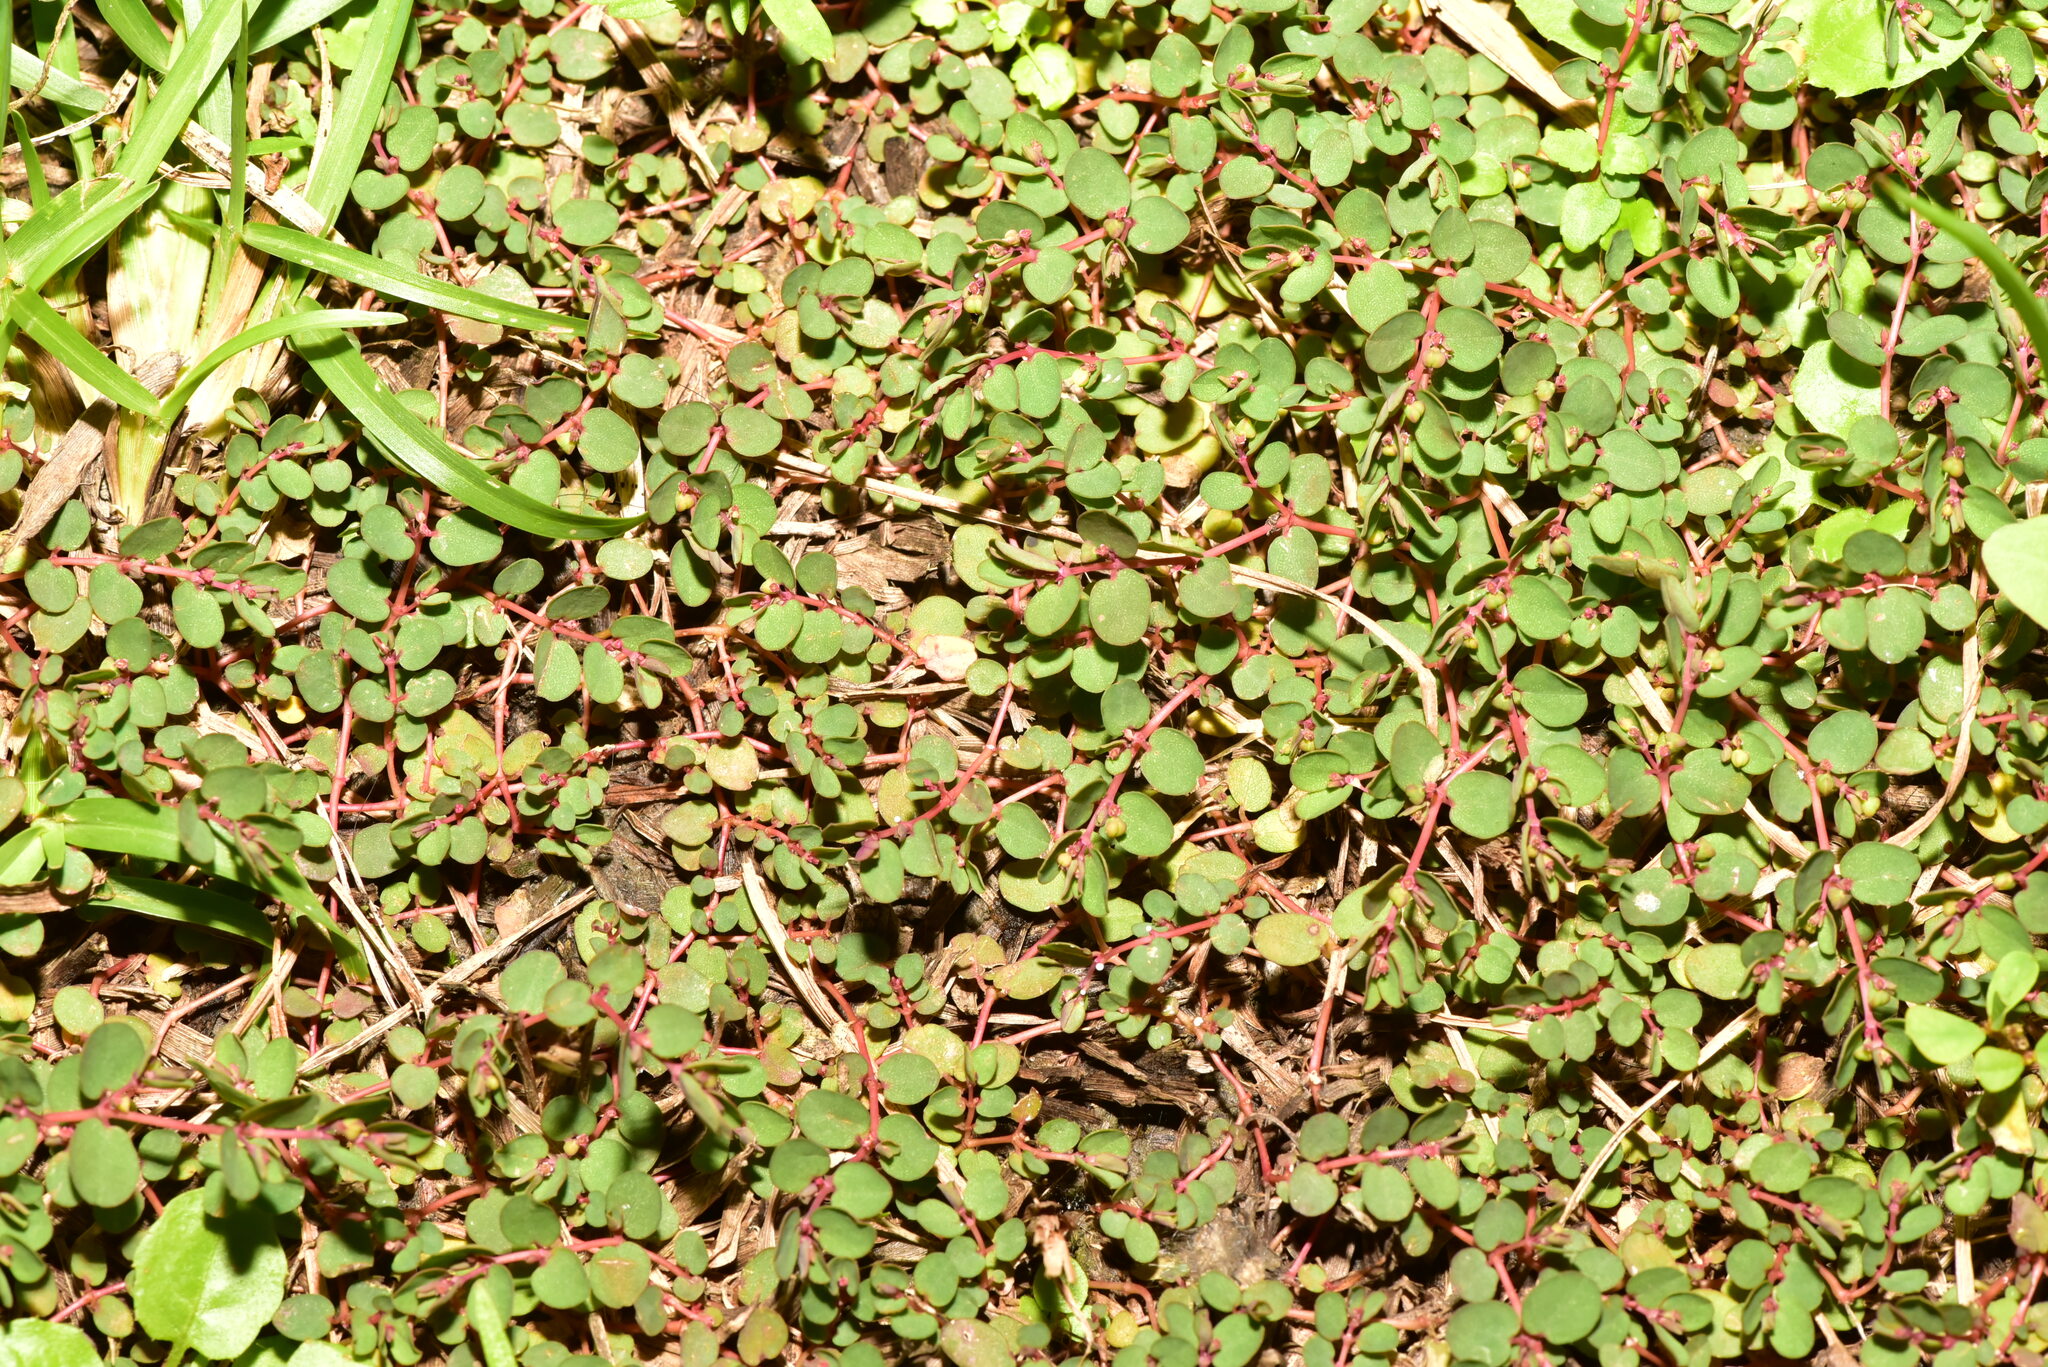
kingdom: Plantae
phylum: Tracheophyta
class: Magnoliopsida
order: Malpighiales
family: Euphorbiaceae
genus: Euphorbia
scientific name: Euphorbia makinoi
